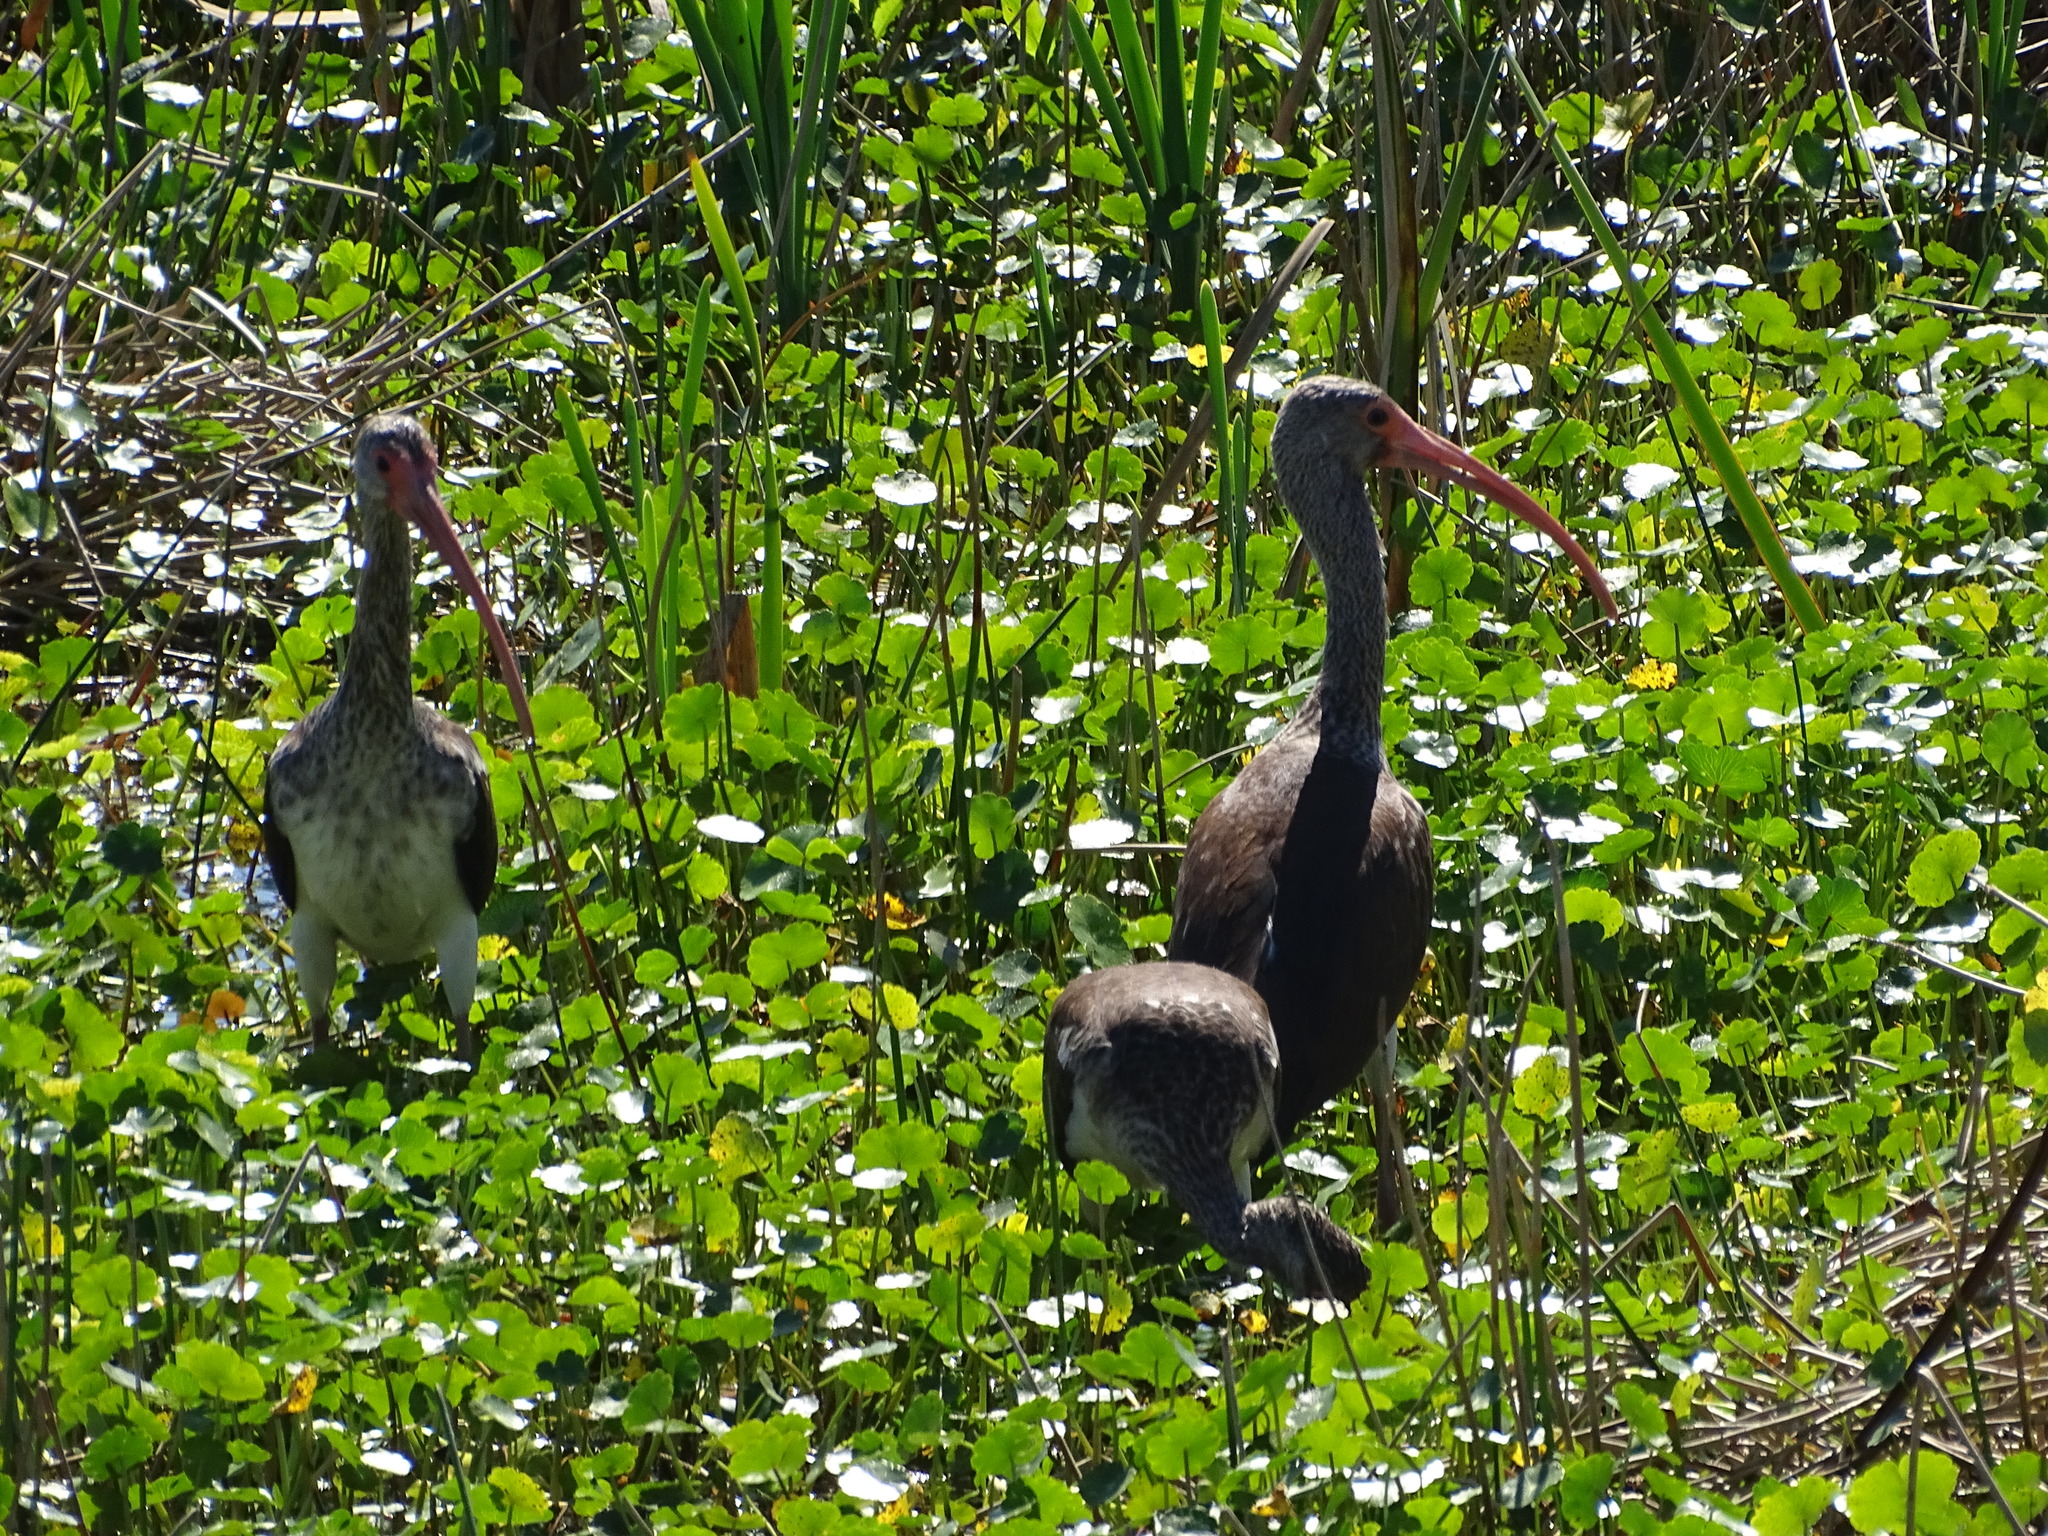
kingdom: Animalia
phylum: Chordata
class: Aves
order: Pelecaniformes
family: Threskiornithidae
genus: Eudocimus
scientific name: Eudocimus albus
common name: White ibis
